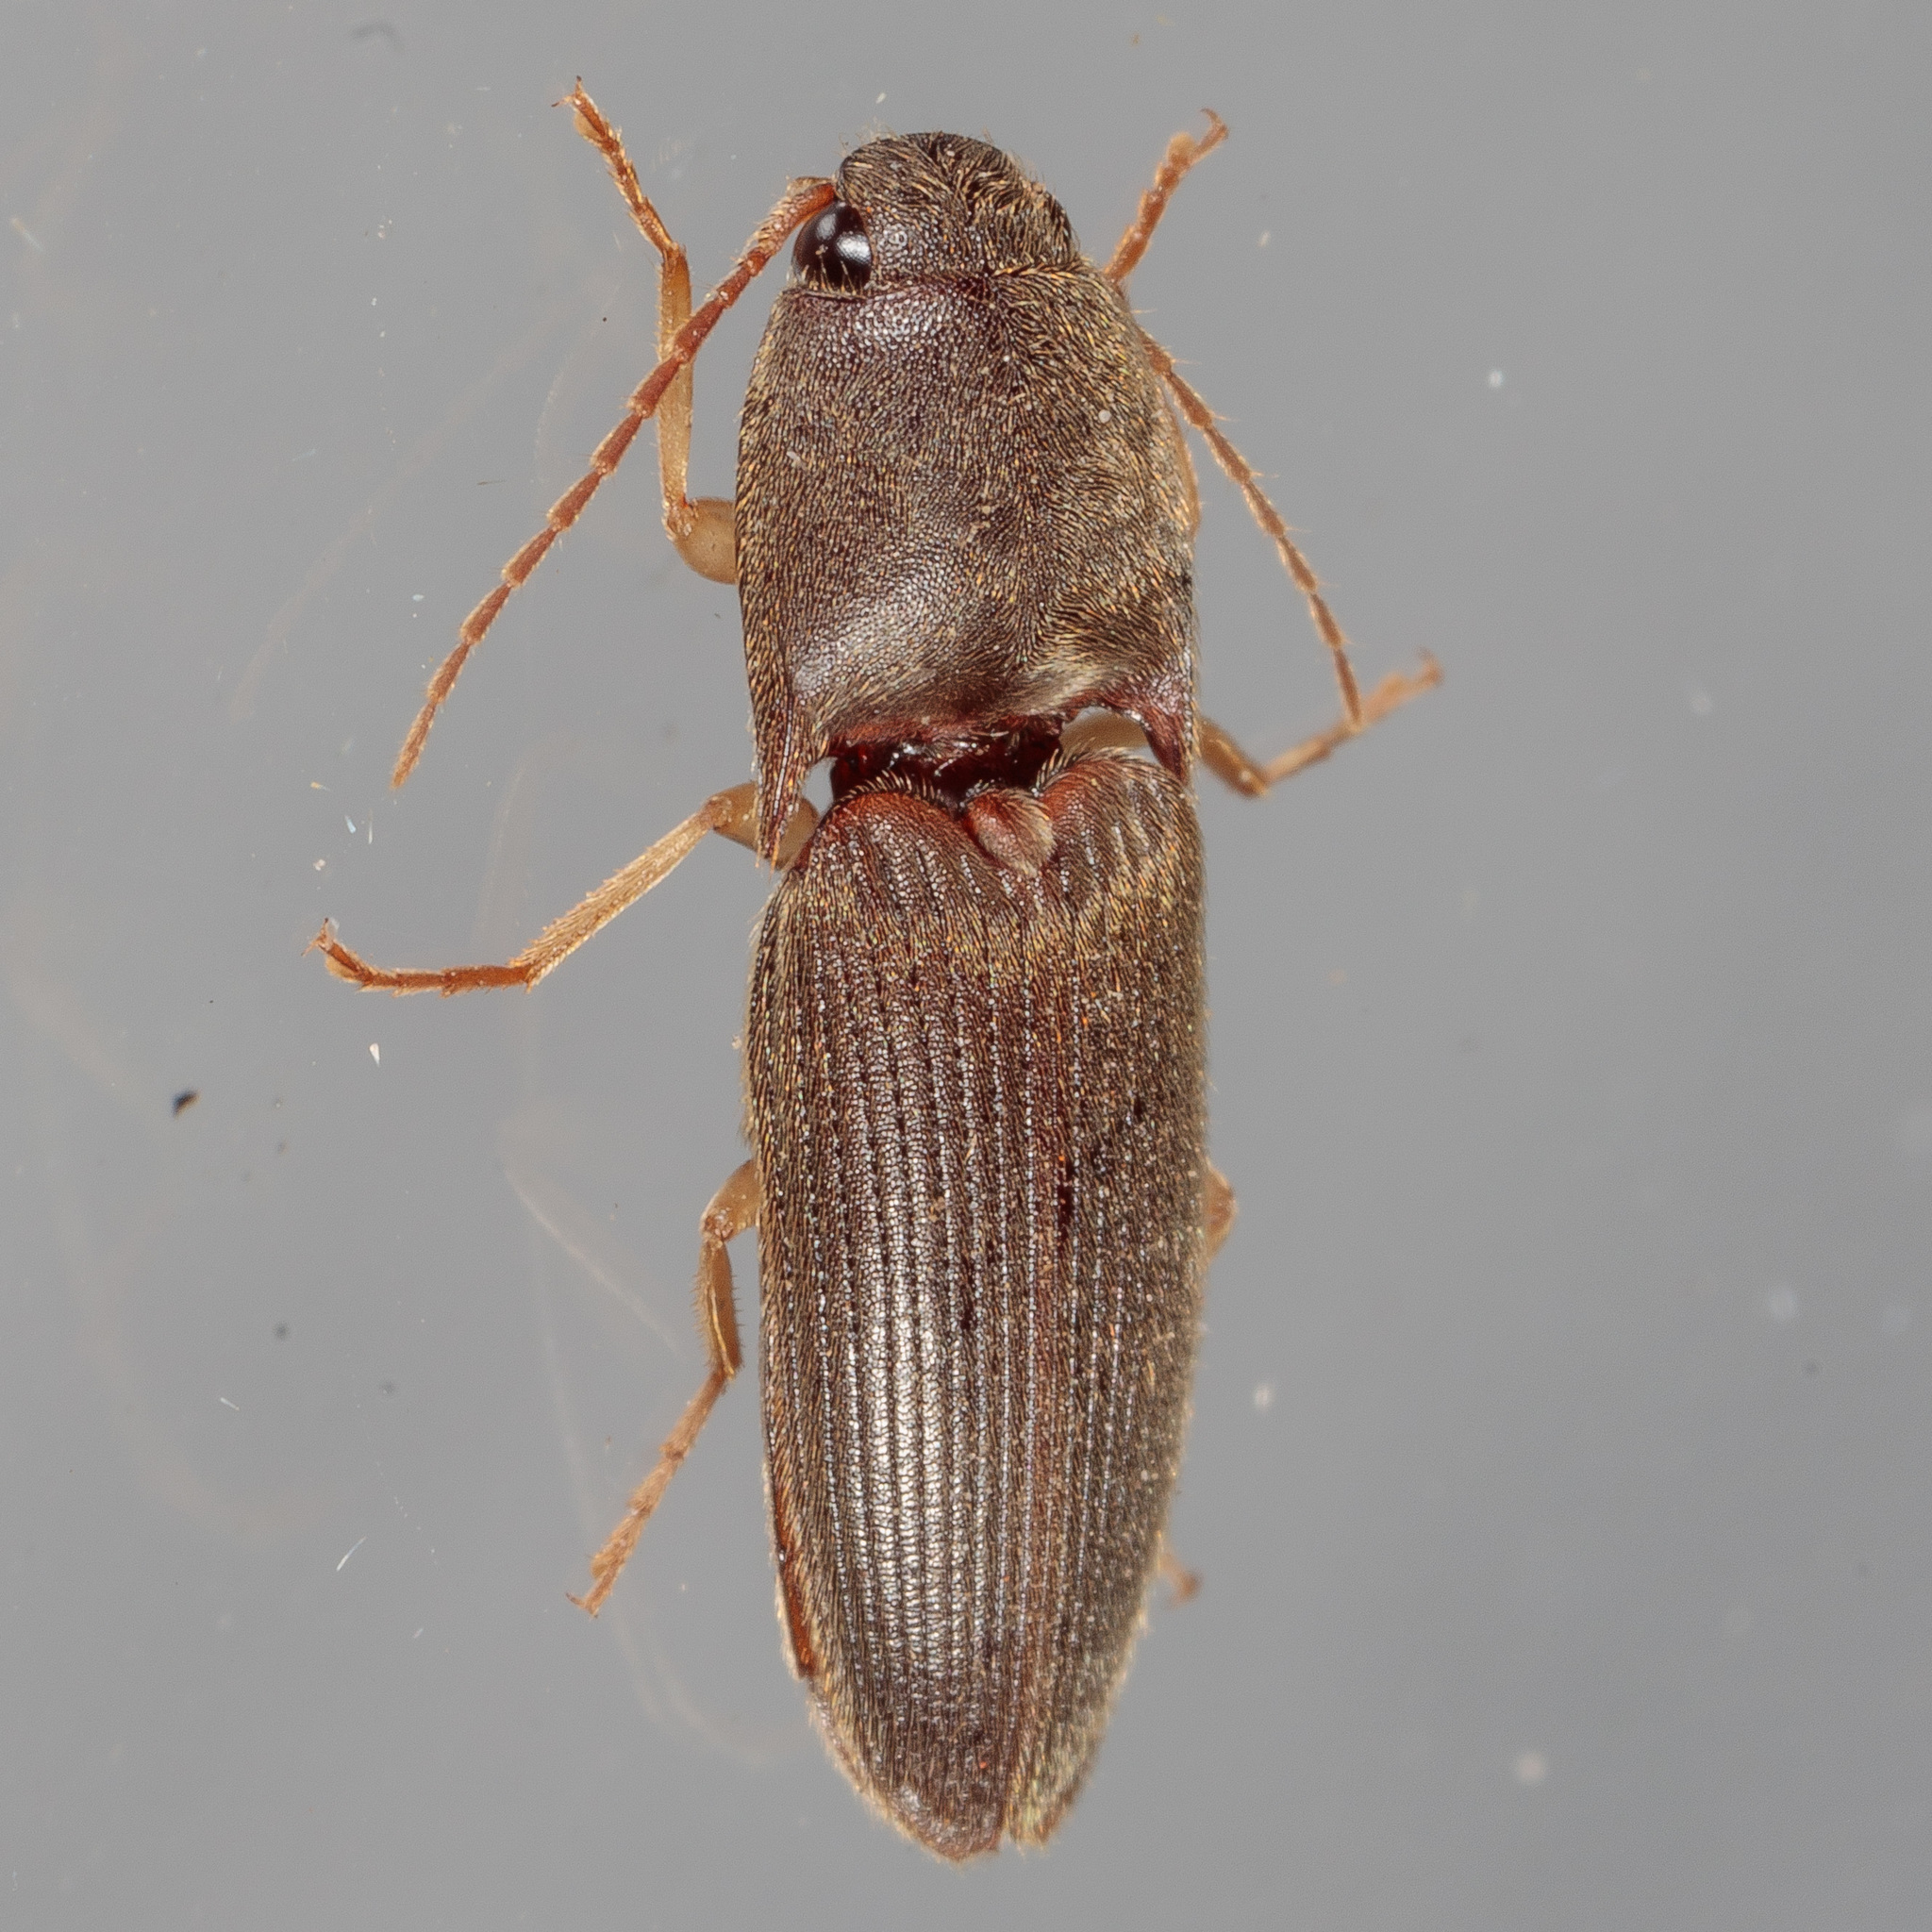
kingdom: Animalia
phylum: Arthropoda
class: Insecta
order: Coleoptera
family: Elateridae
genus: Conoderus
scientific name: Conoderus exsul
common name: Click beetle
